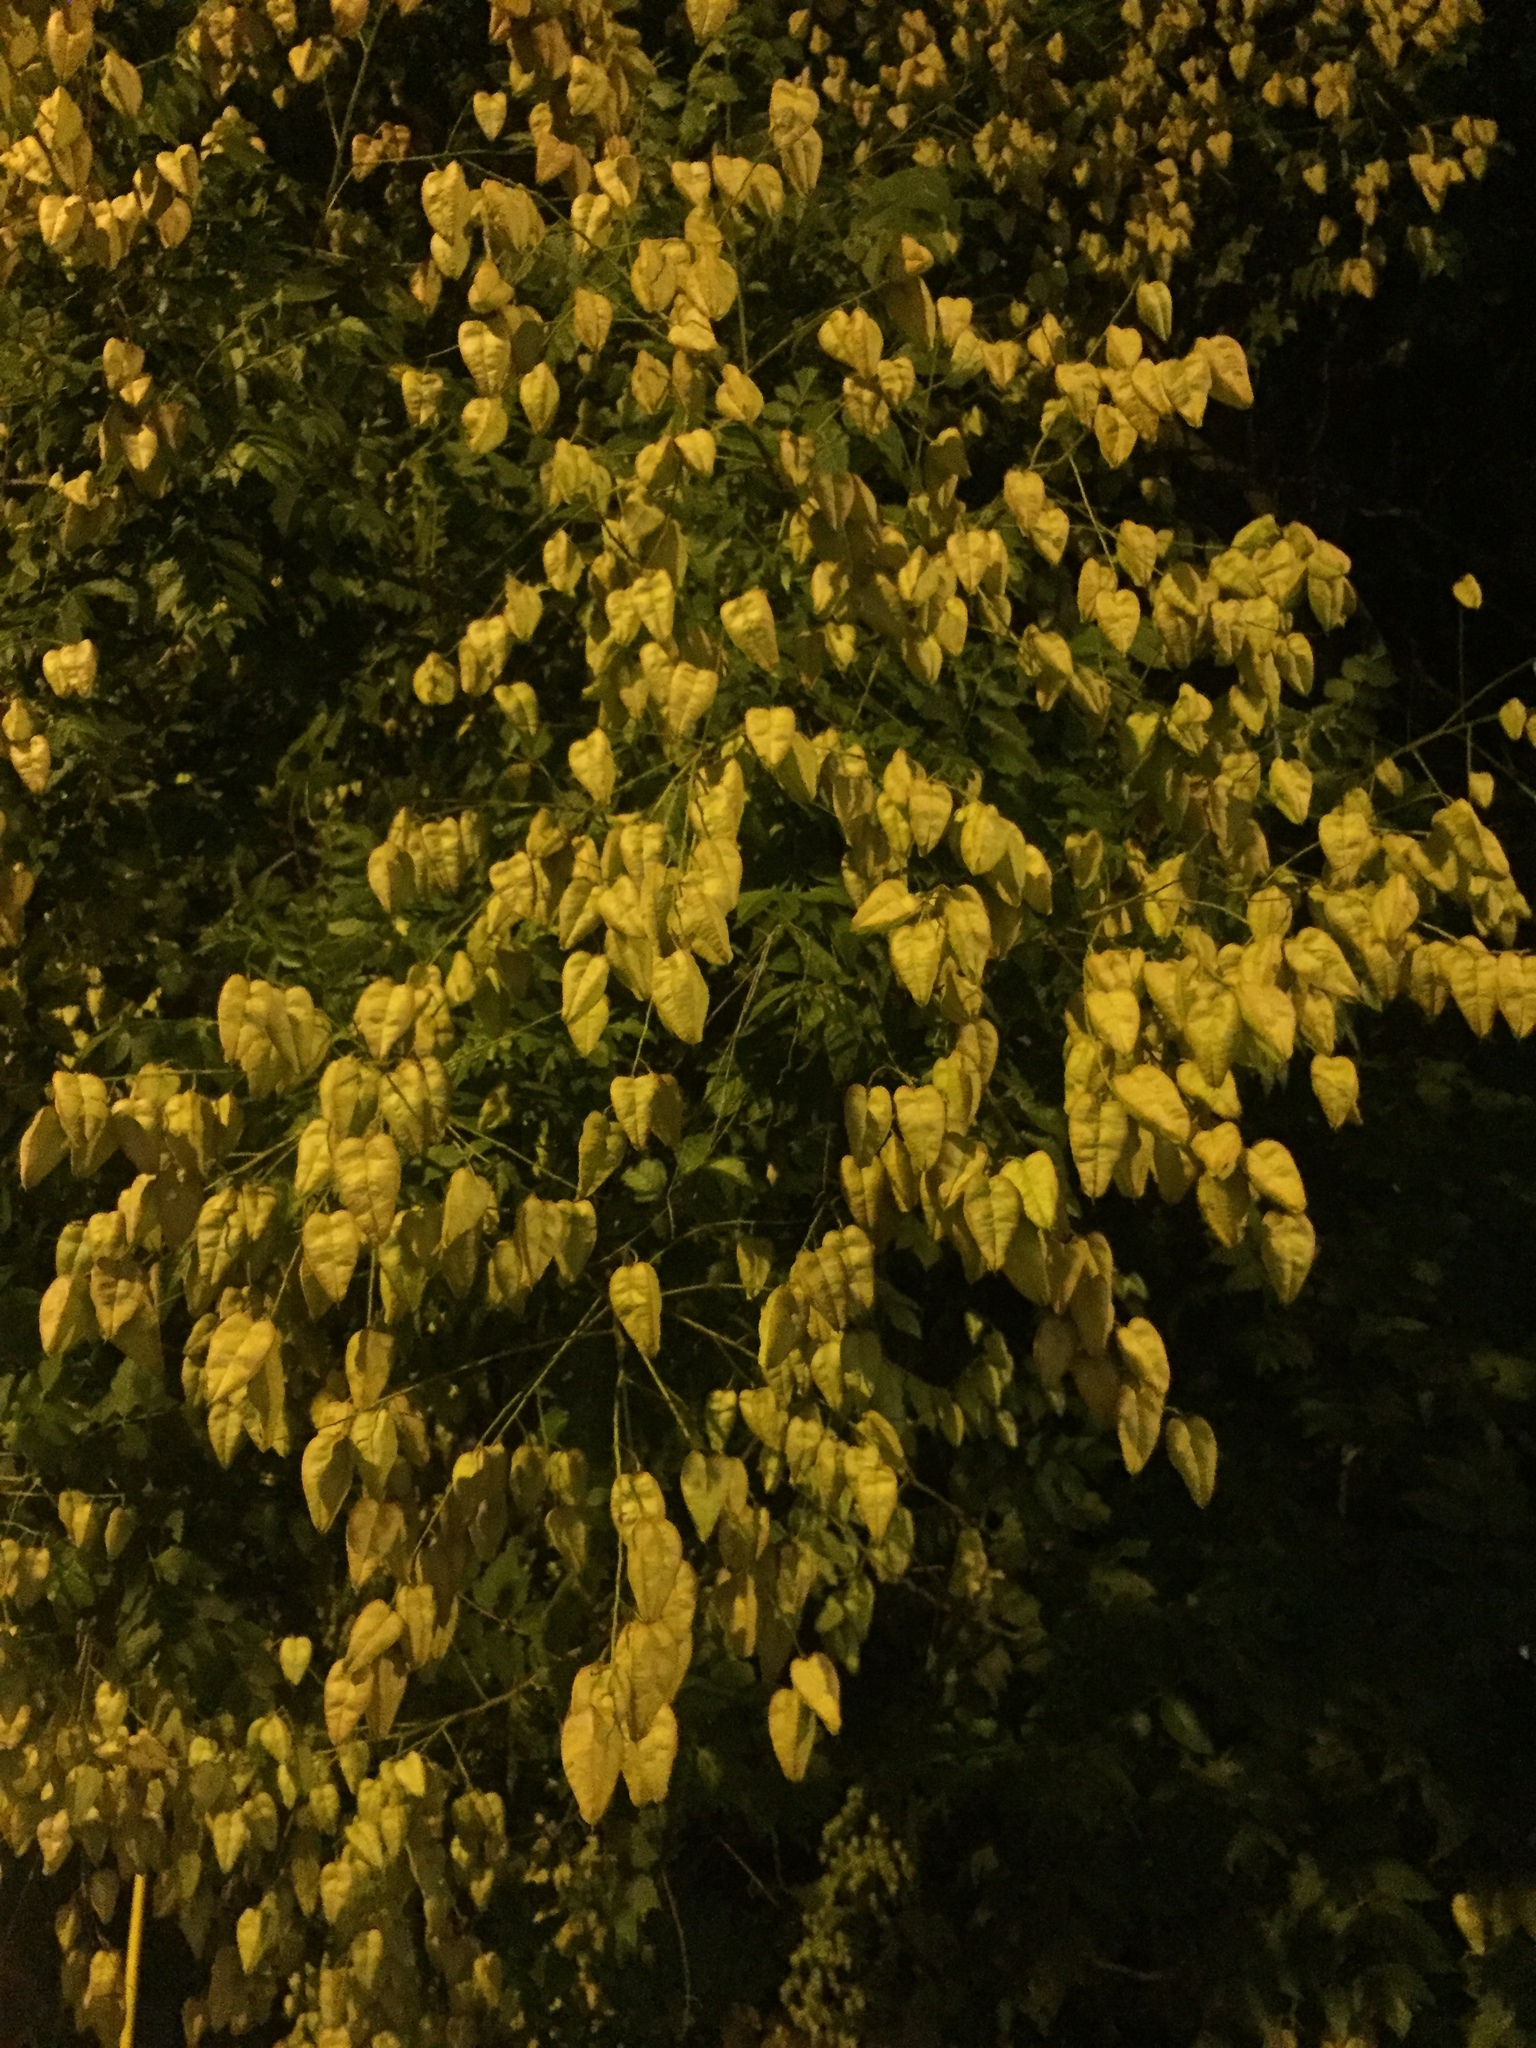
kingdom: Plantae
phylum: Tracheophyta
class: Magnoliopsida
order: Sapindales
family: Sapindaceae
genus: Koelreuteria
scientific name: Koelreuteria paniculata
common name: Pride-of-india
